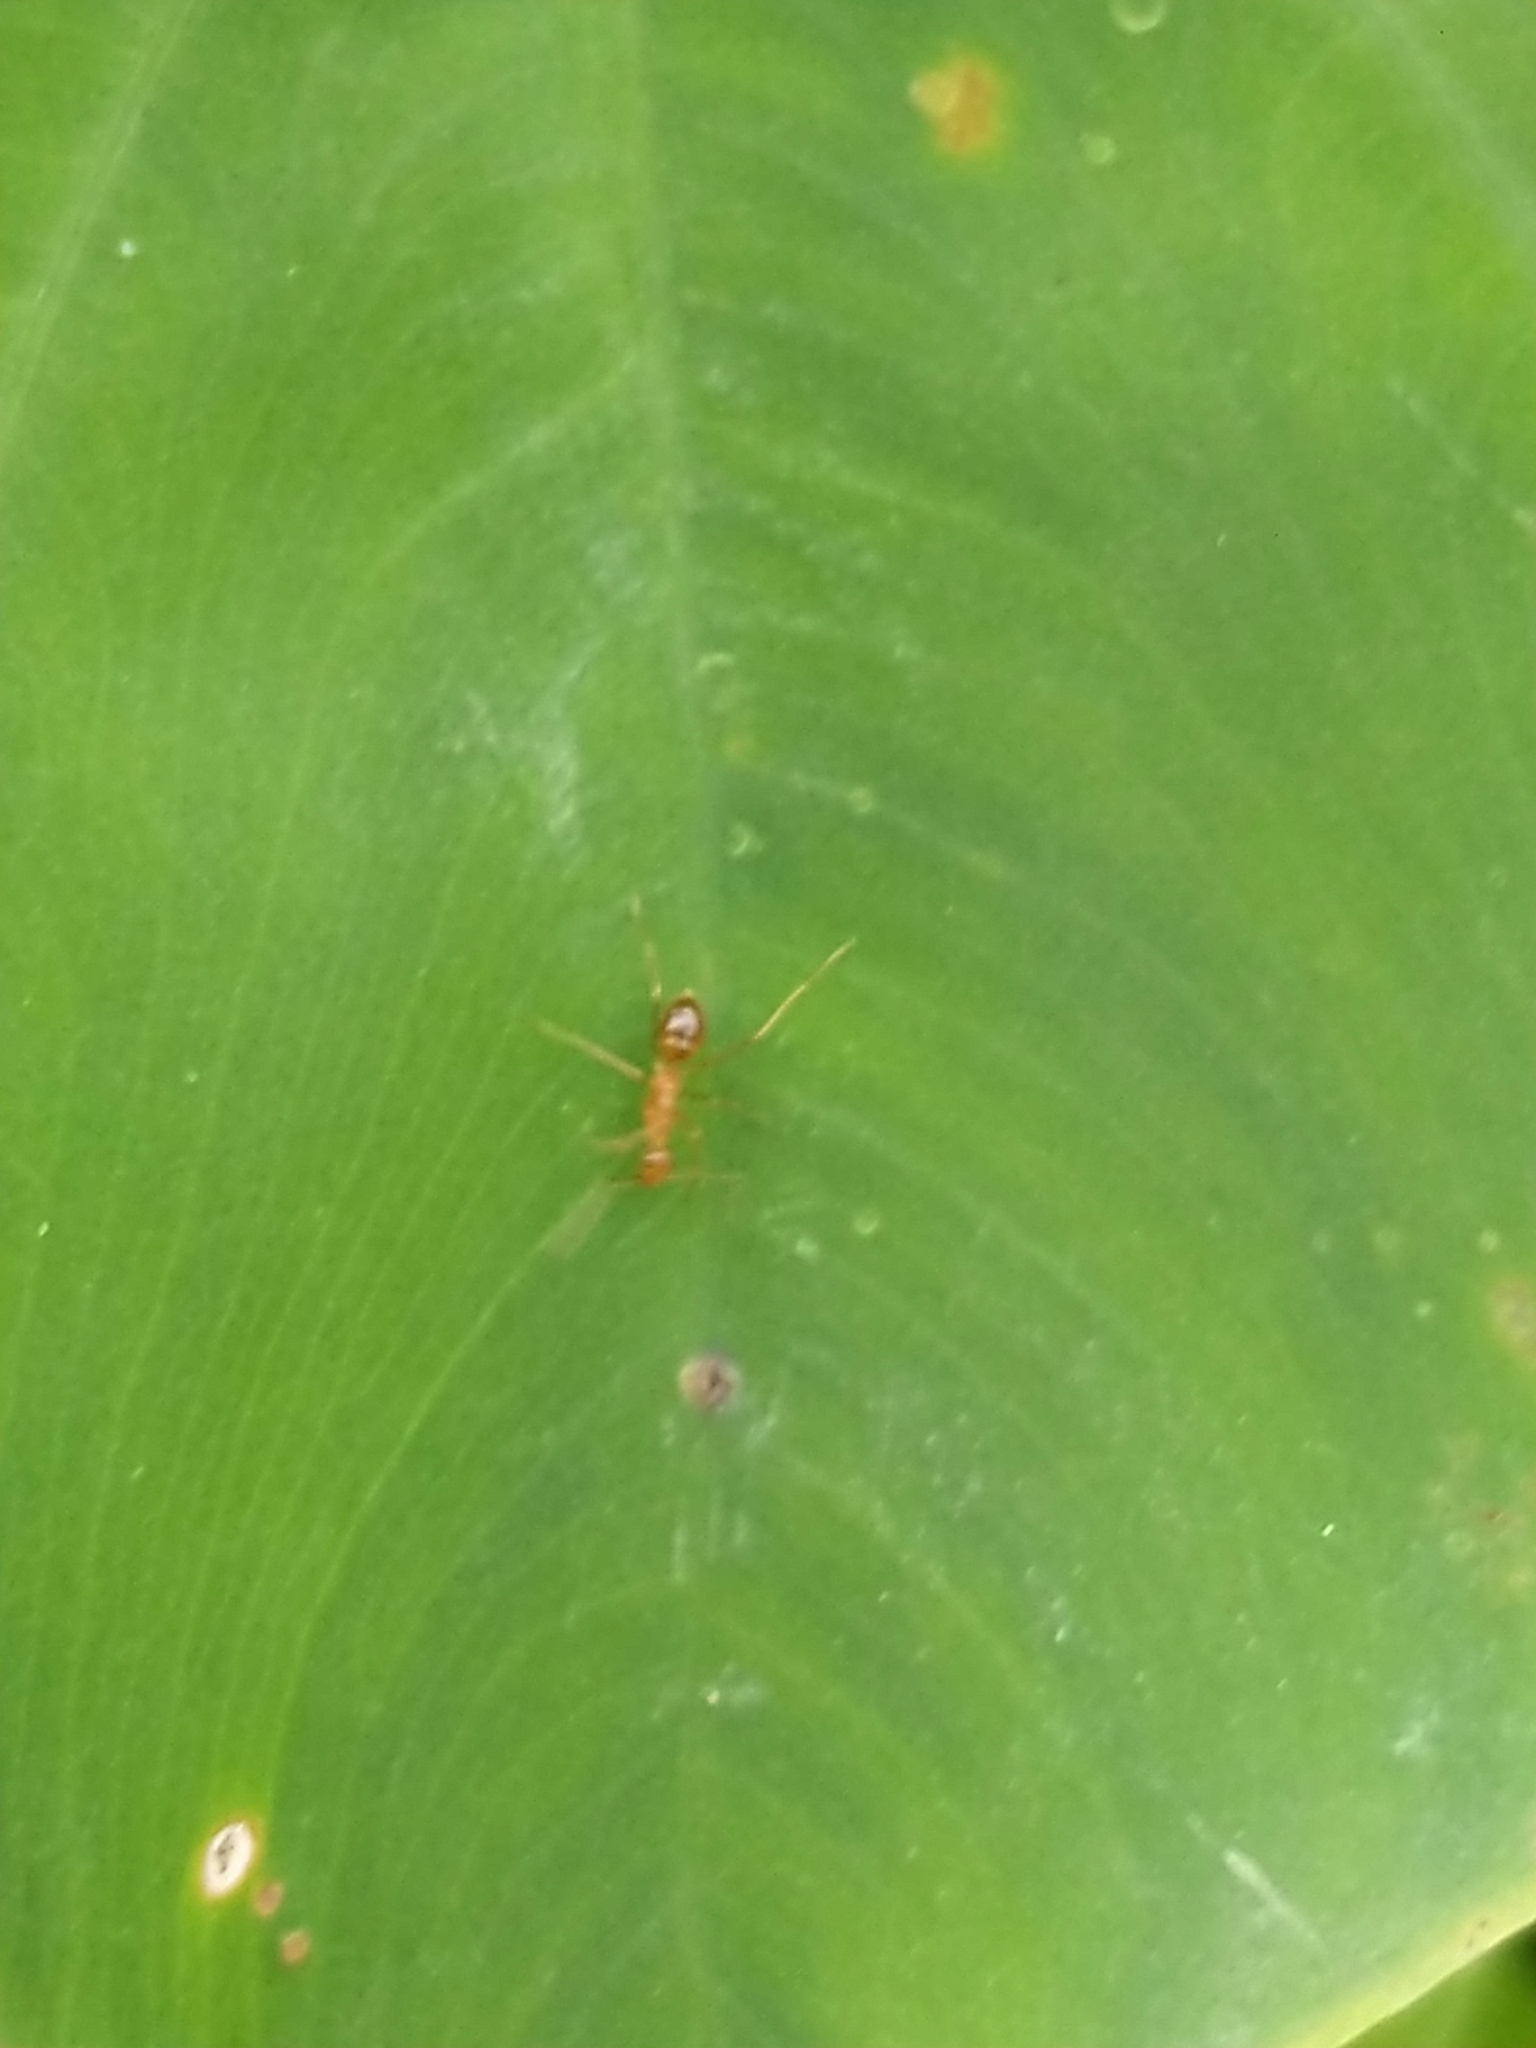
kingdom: Animalia
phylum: Arthropoda
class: Insecta
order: Hymenoptera
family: Formicidae
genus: Anoplolepis
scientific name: Anoplolepis gracilipes
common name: Ant
